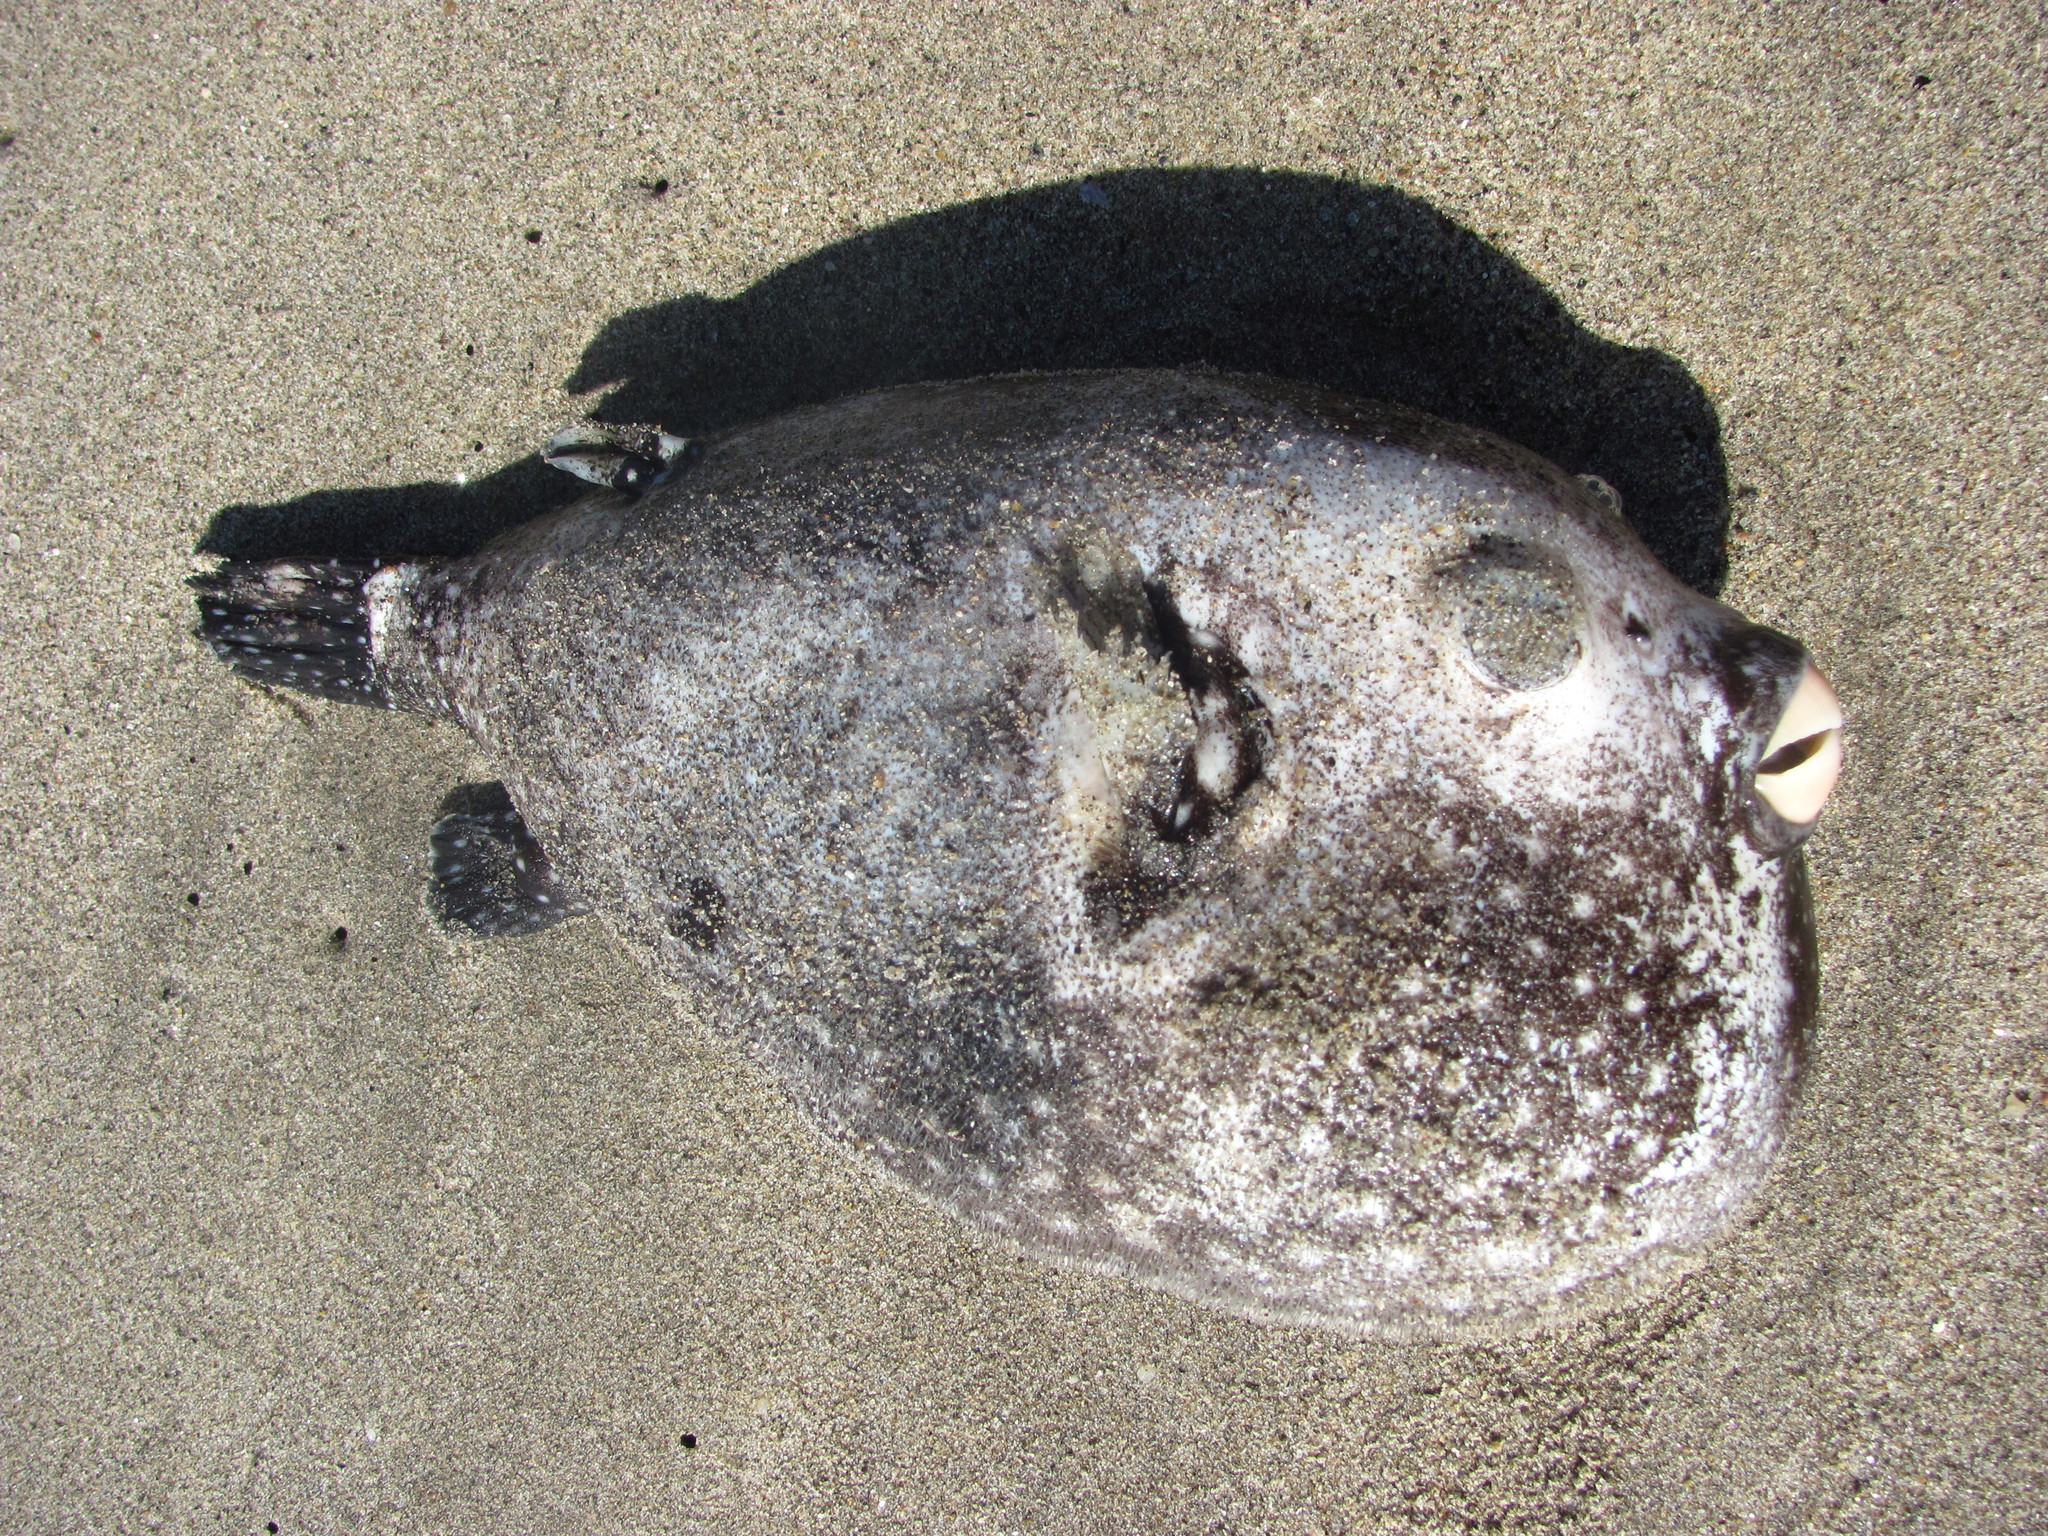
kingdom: Animalia
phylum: Chordata
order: Tetraodontiformes
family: Tetraodontidae
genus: Arothron
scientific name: Arothron hispidus
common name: Stripebelly puffer
